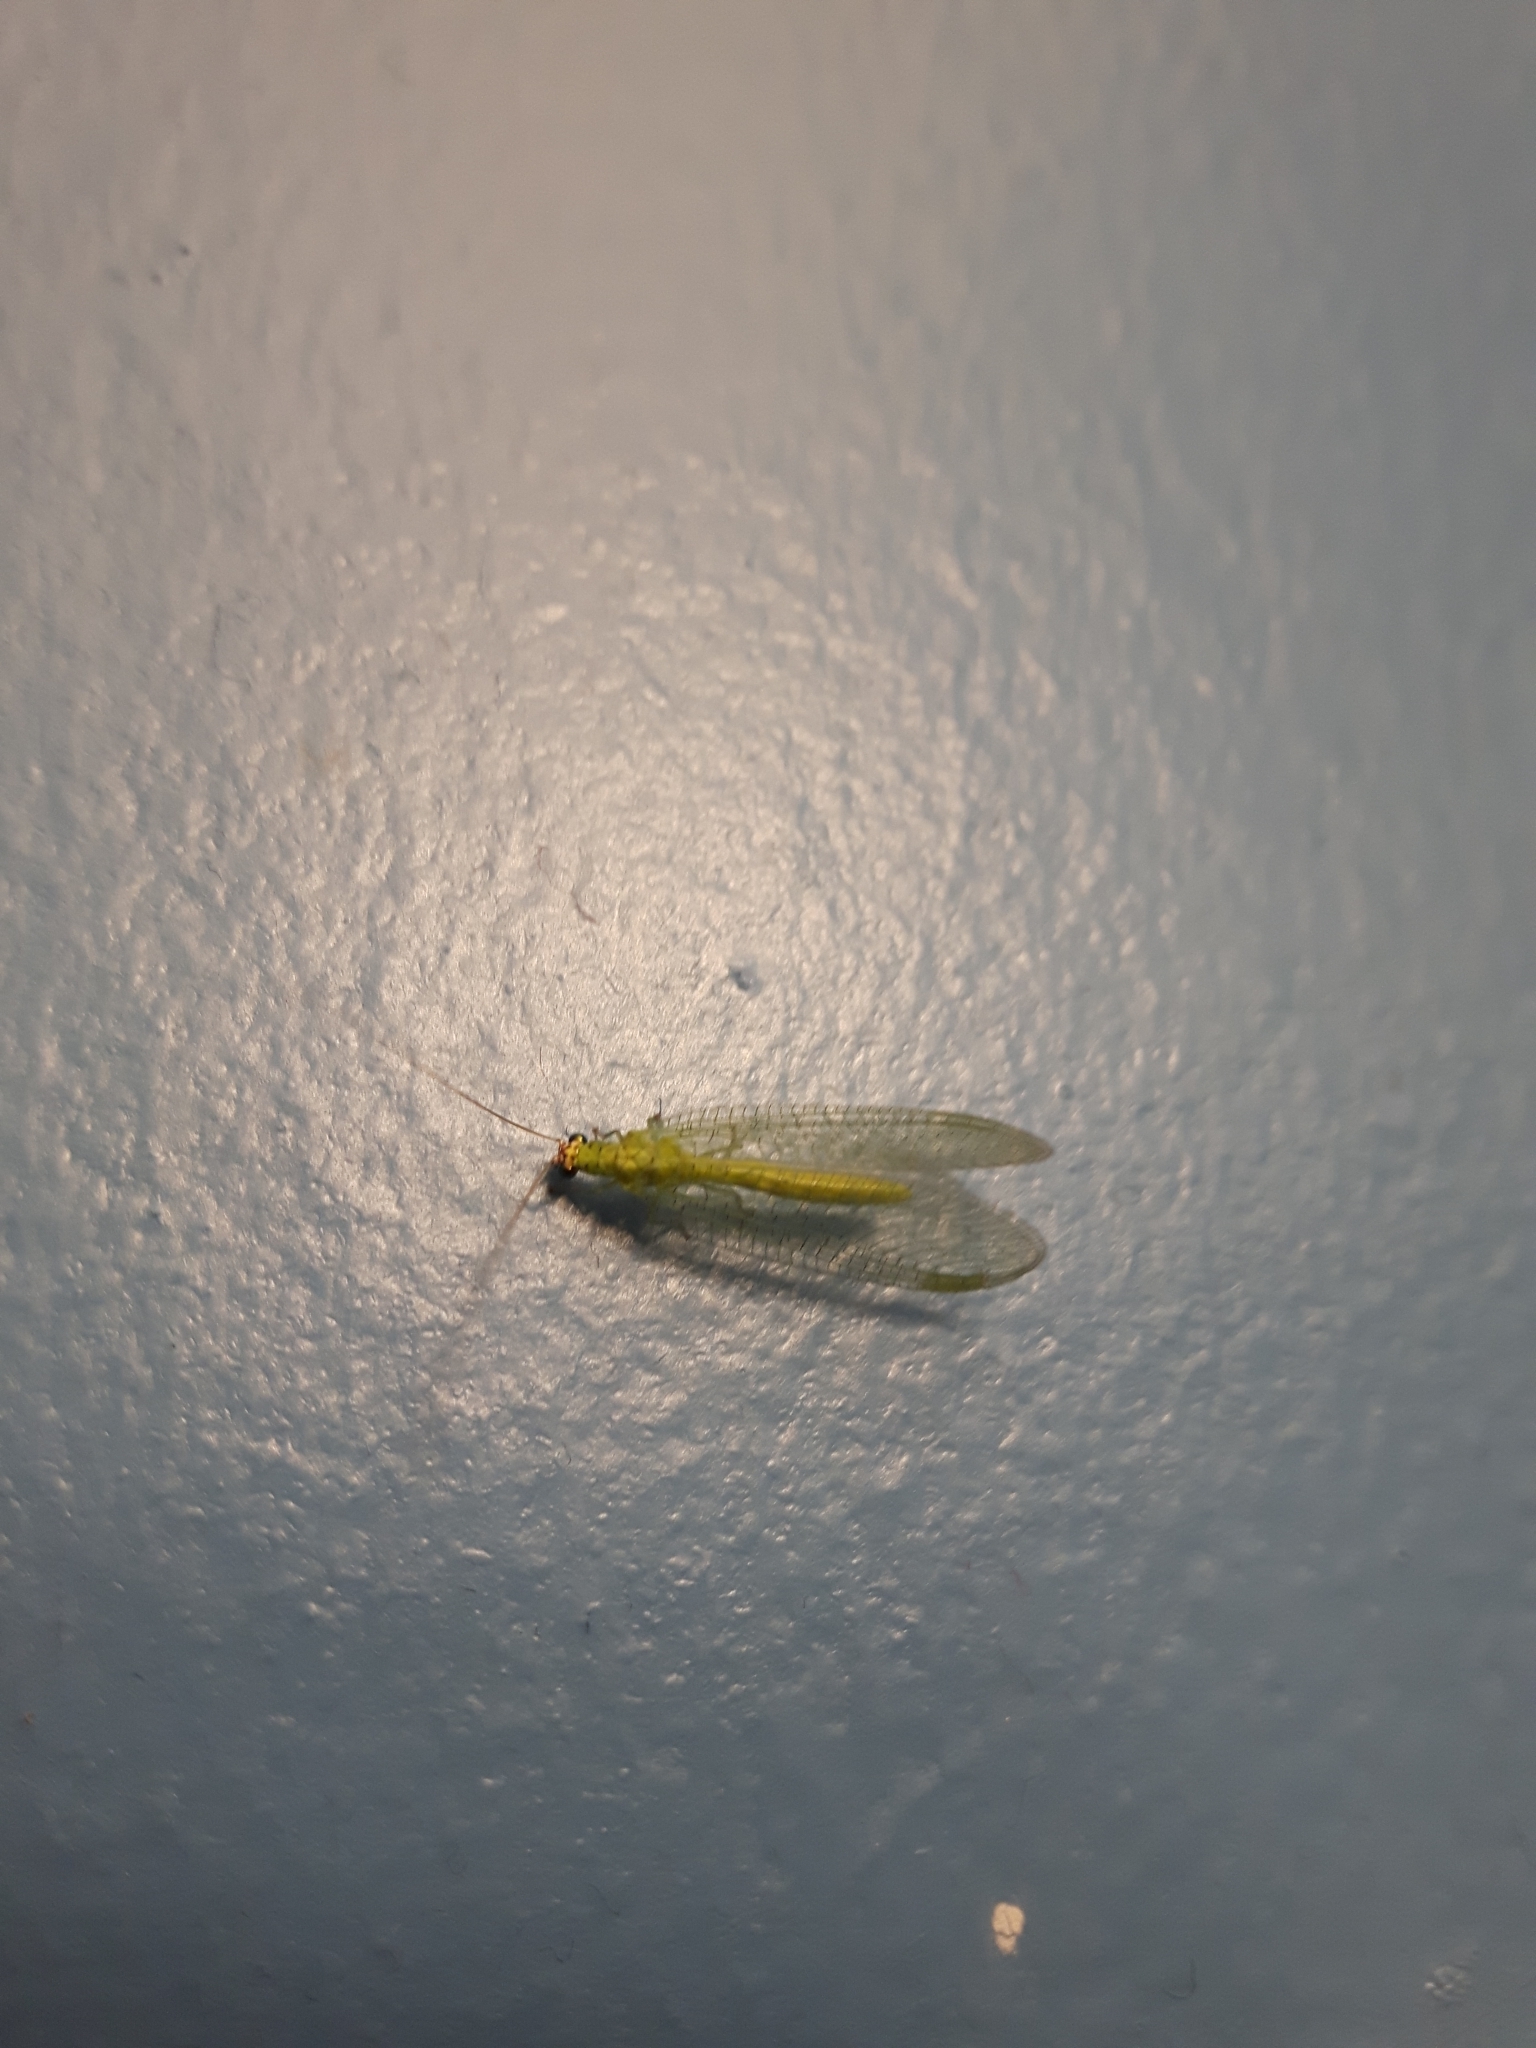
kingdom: Animalia
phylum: Arthropoda
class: Insecta
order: Neuroptera
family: Chrysopidae
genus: Chrysopa
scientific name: Chrysopa oculata
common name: Golden-eyed lacewing
